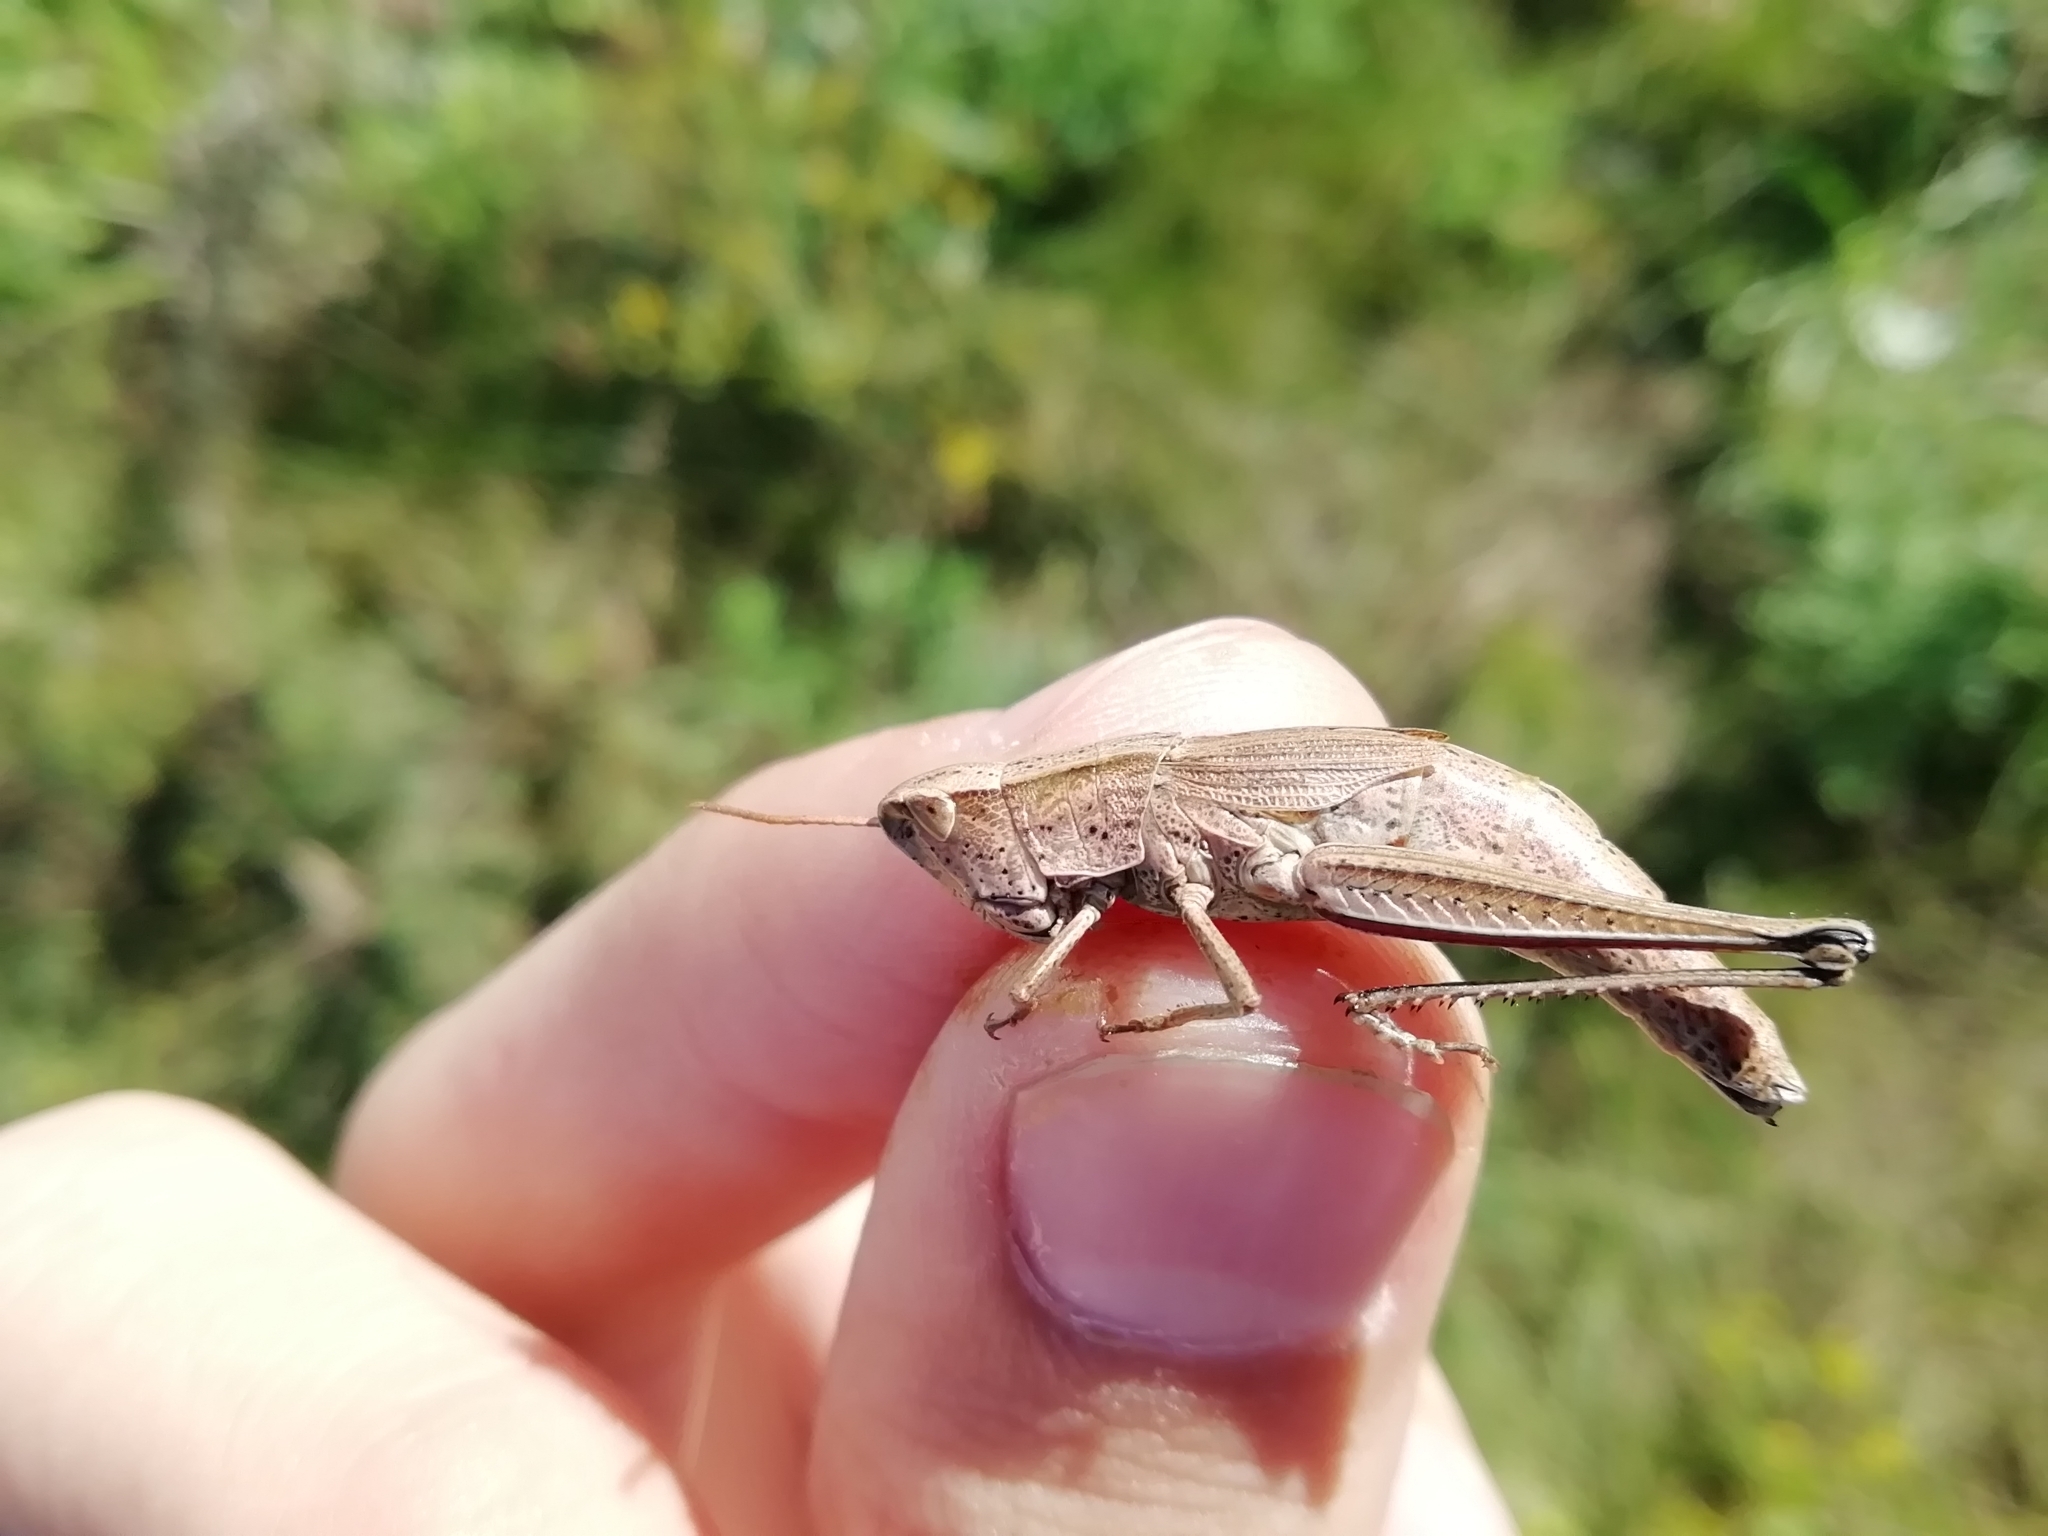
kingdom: Animalia
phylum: Arthropoda
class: Insecta
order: Orthoptera
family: Acrididae
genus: Chrysochraon
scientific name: Chrysochraon dispar
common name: Large gold grasshopper
